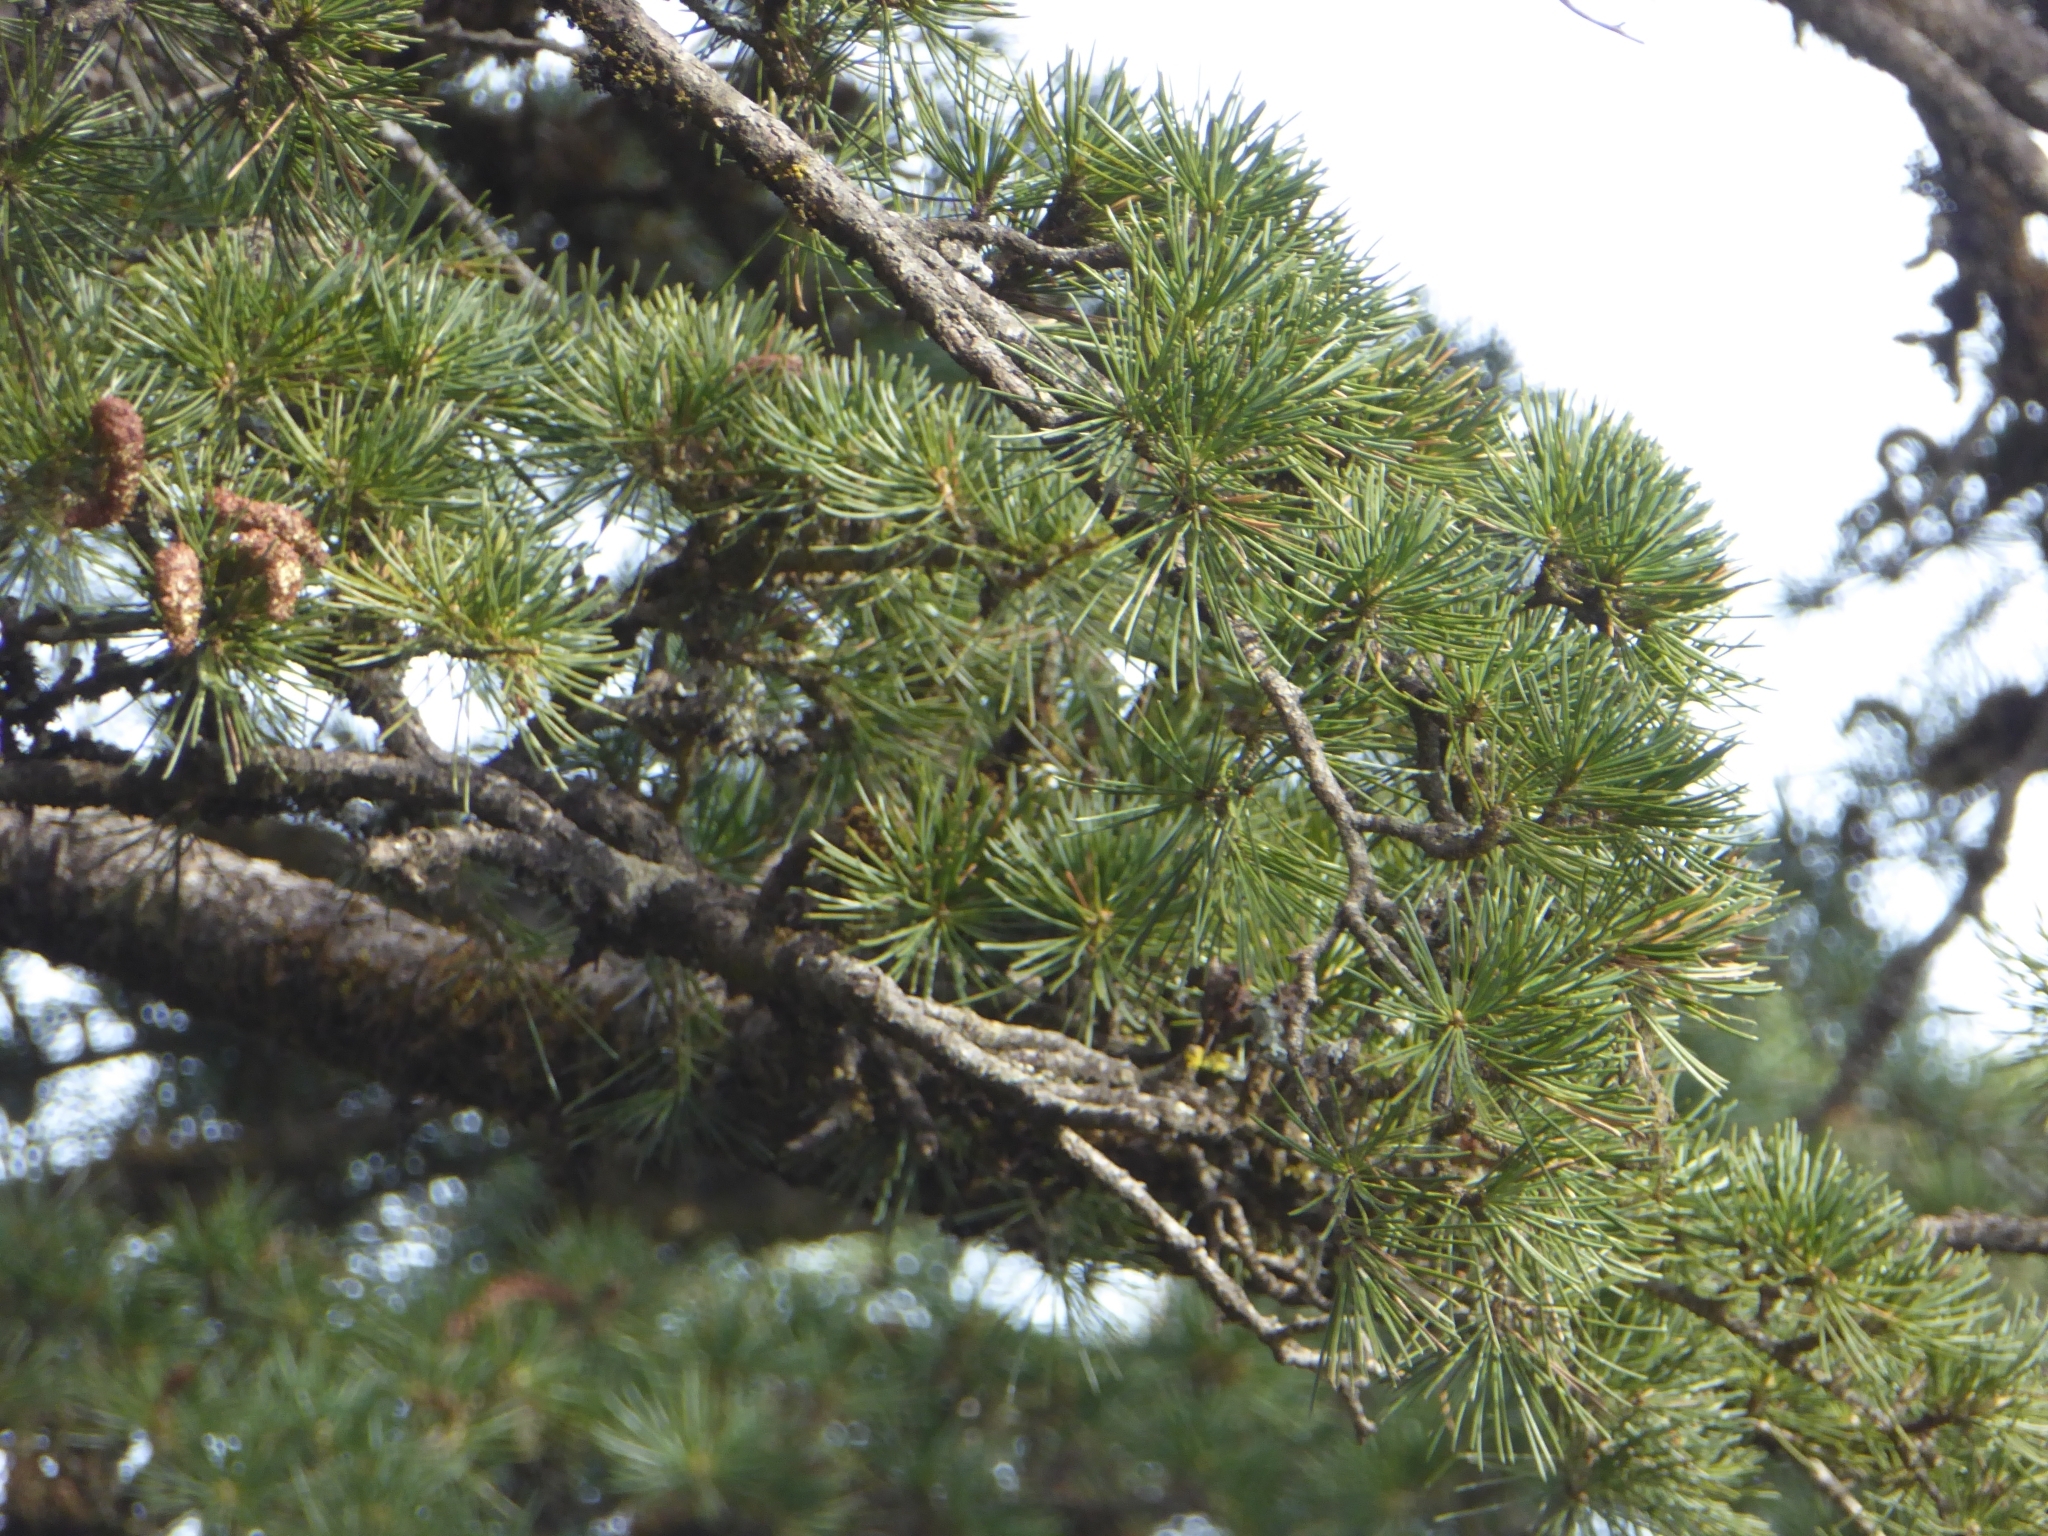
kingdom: Plantae
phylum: Tracheophyta
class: Pinopsida
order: Pinales
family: Pinaceae
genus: Cedrus
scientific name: Cedrus deodara
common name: Deodar
